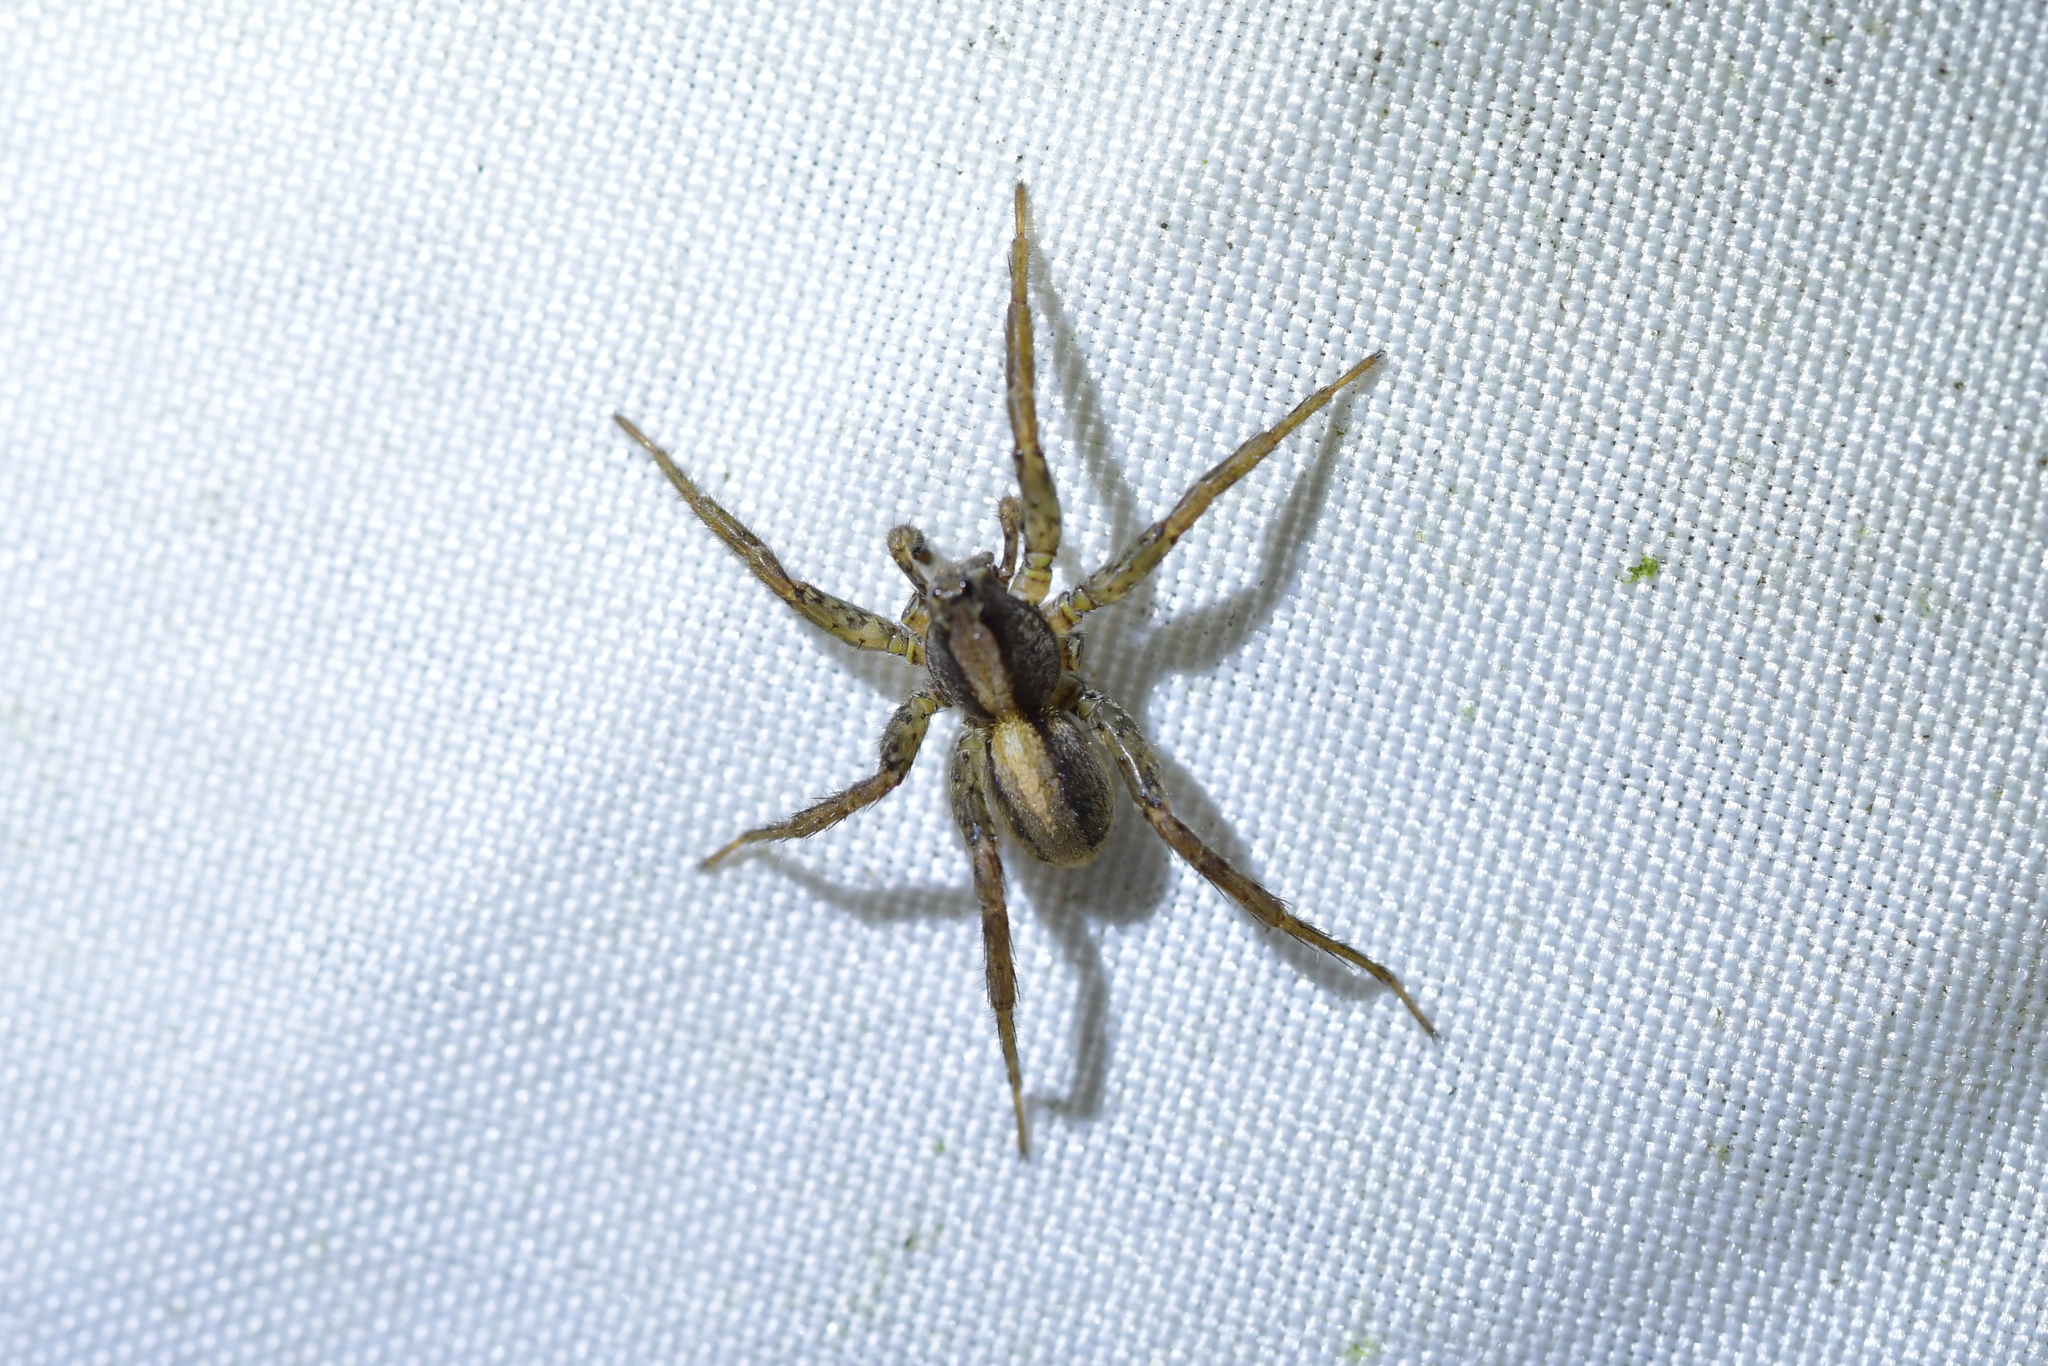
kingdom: Animalia
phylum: Arthropoda
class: Arachnida
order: Araneae
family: Lycosidae
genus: Anoteropsis
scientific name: Anoteropsis hilaris
